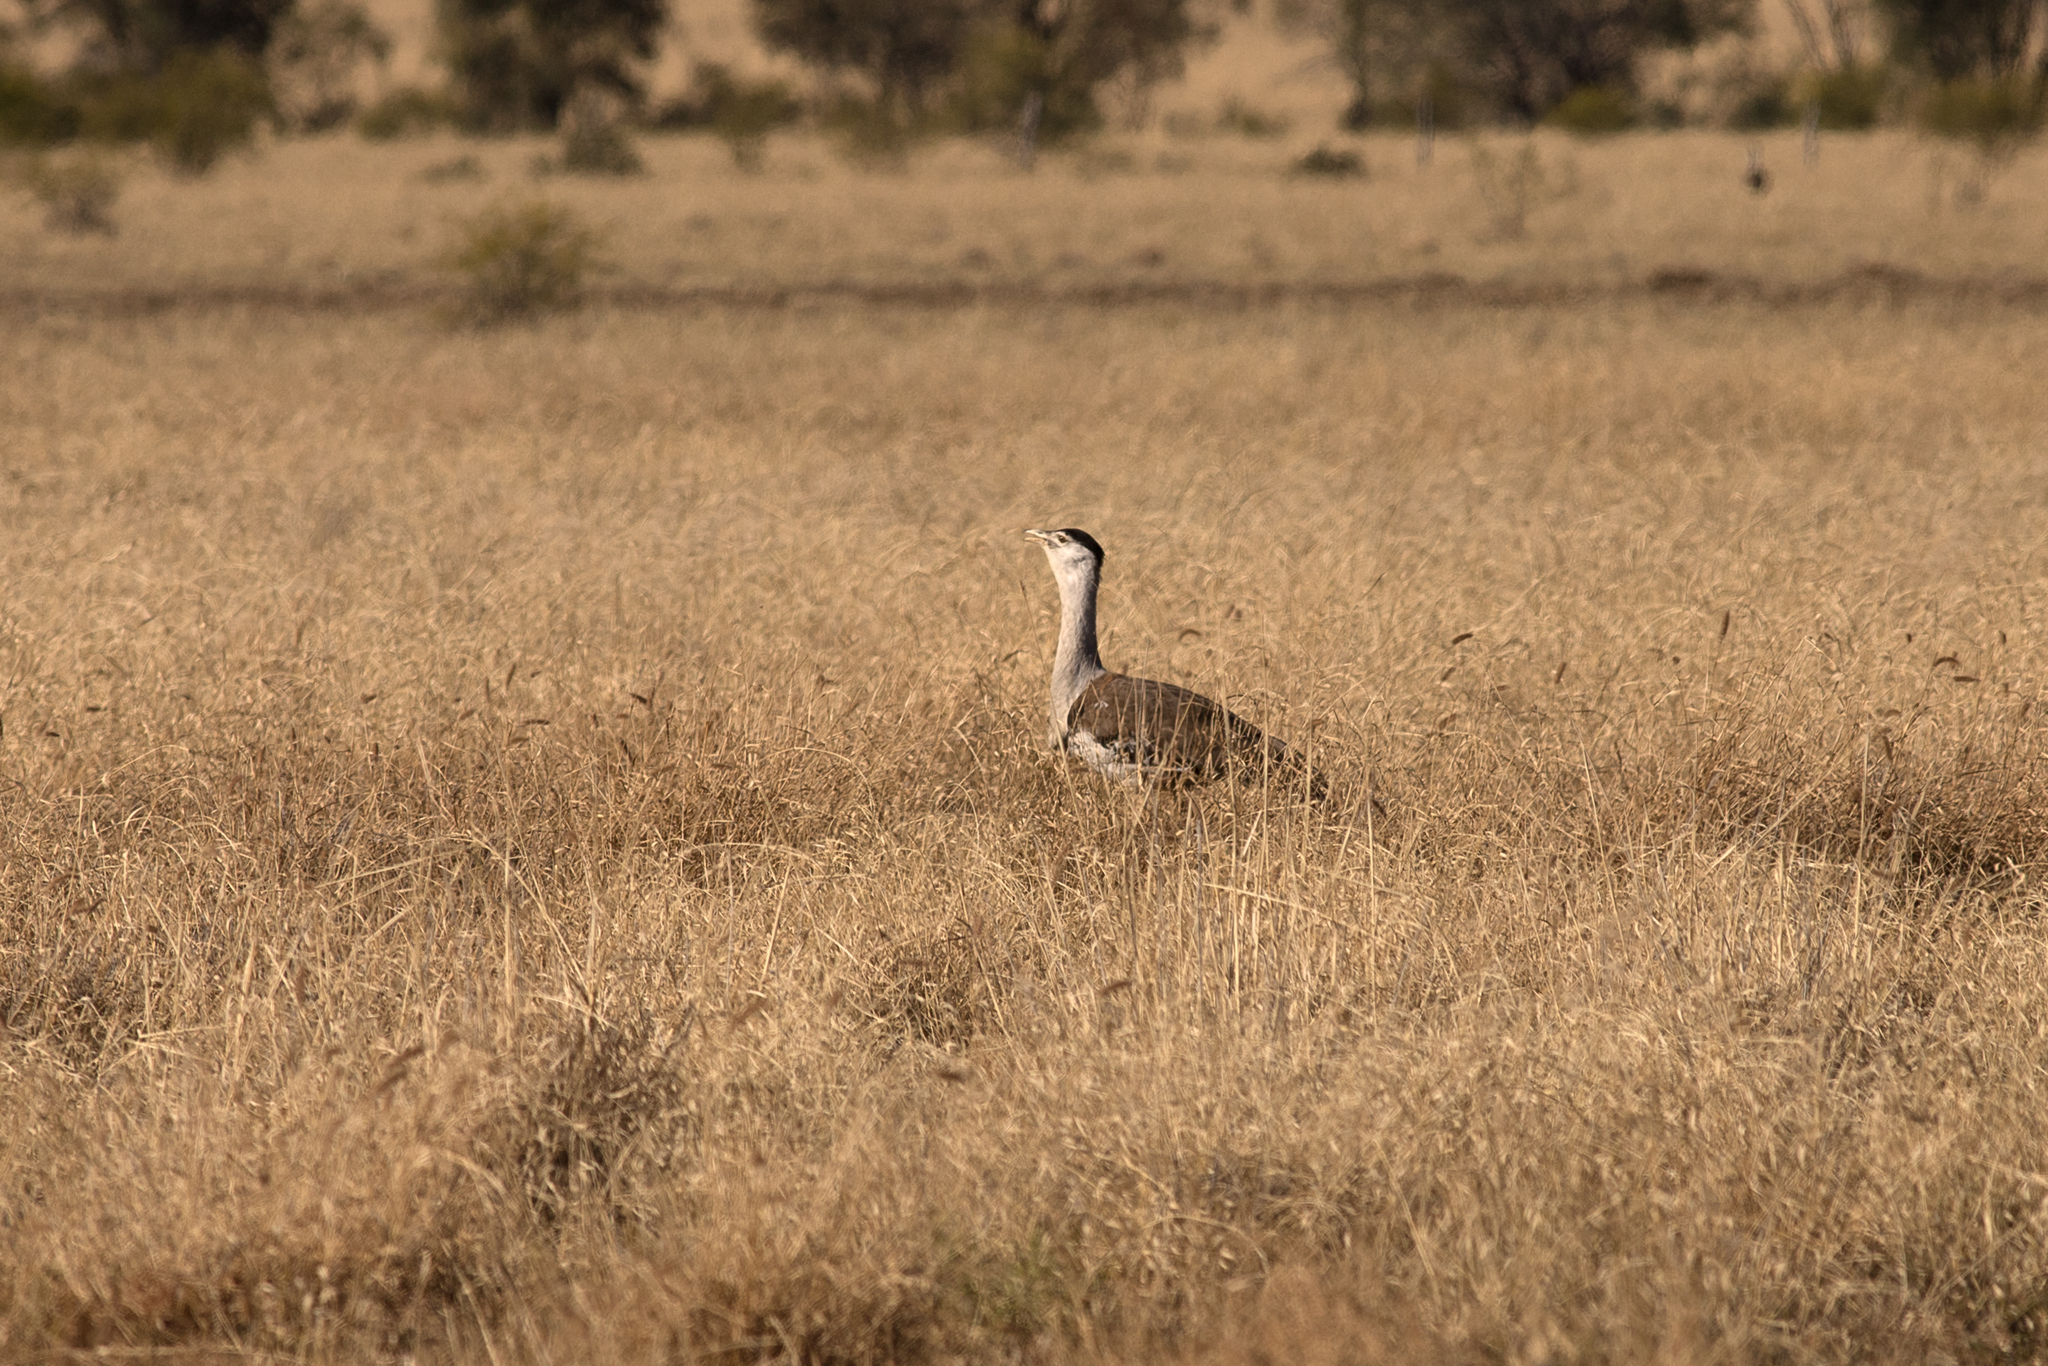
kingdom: Animalia
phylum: Chordata
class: Aves
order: Otidiformes
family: Otididae
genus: Ardeotis
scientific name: Ardeotis australis
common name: Australian bustard
